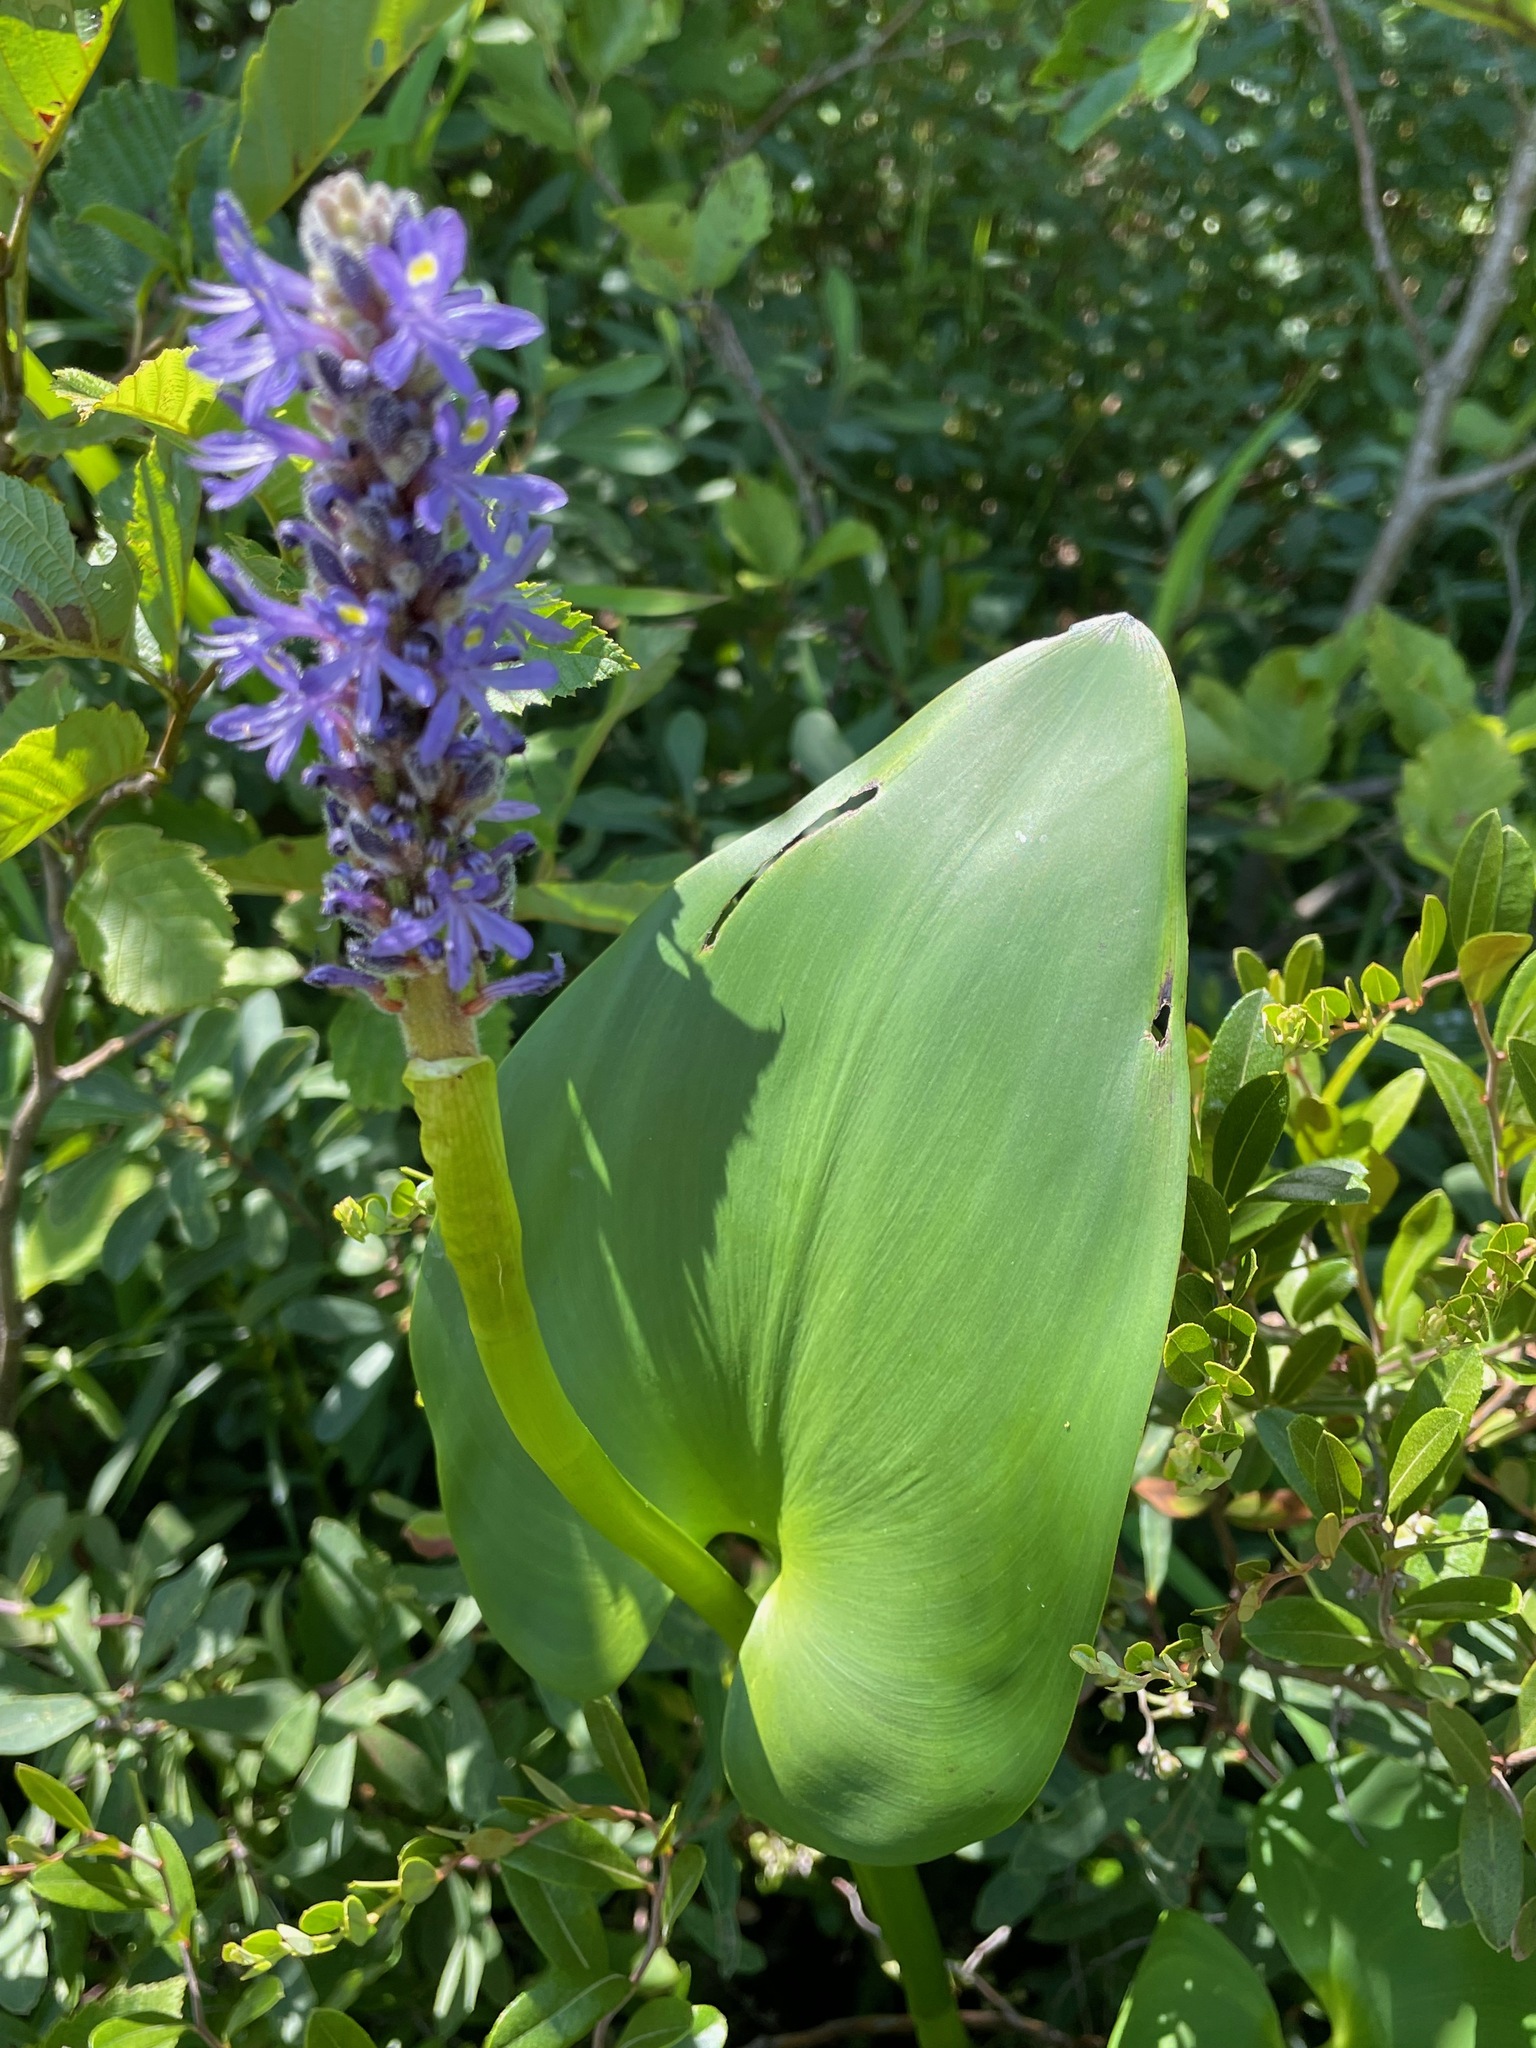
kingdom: Plantae
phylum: Tracheophyta
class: Liliopsida
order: Commelinales
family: Pontederiaceae
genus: Pontederia
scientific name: Pontederia cordata
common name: Pickerelweed
